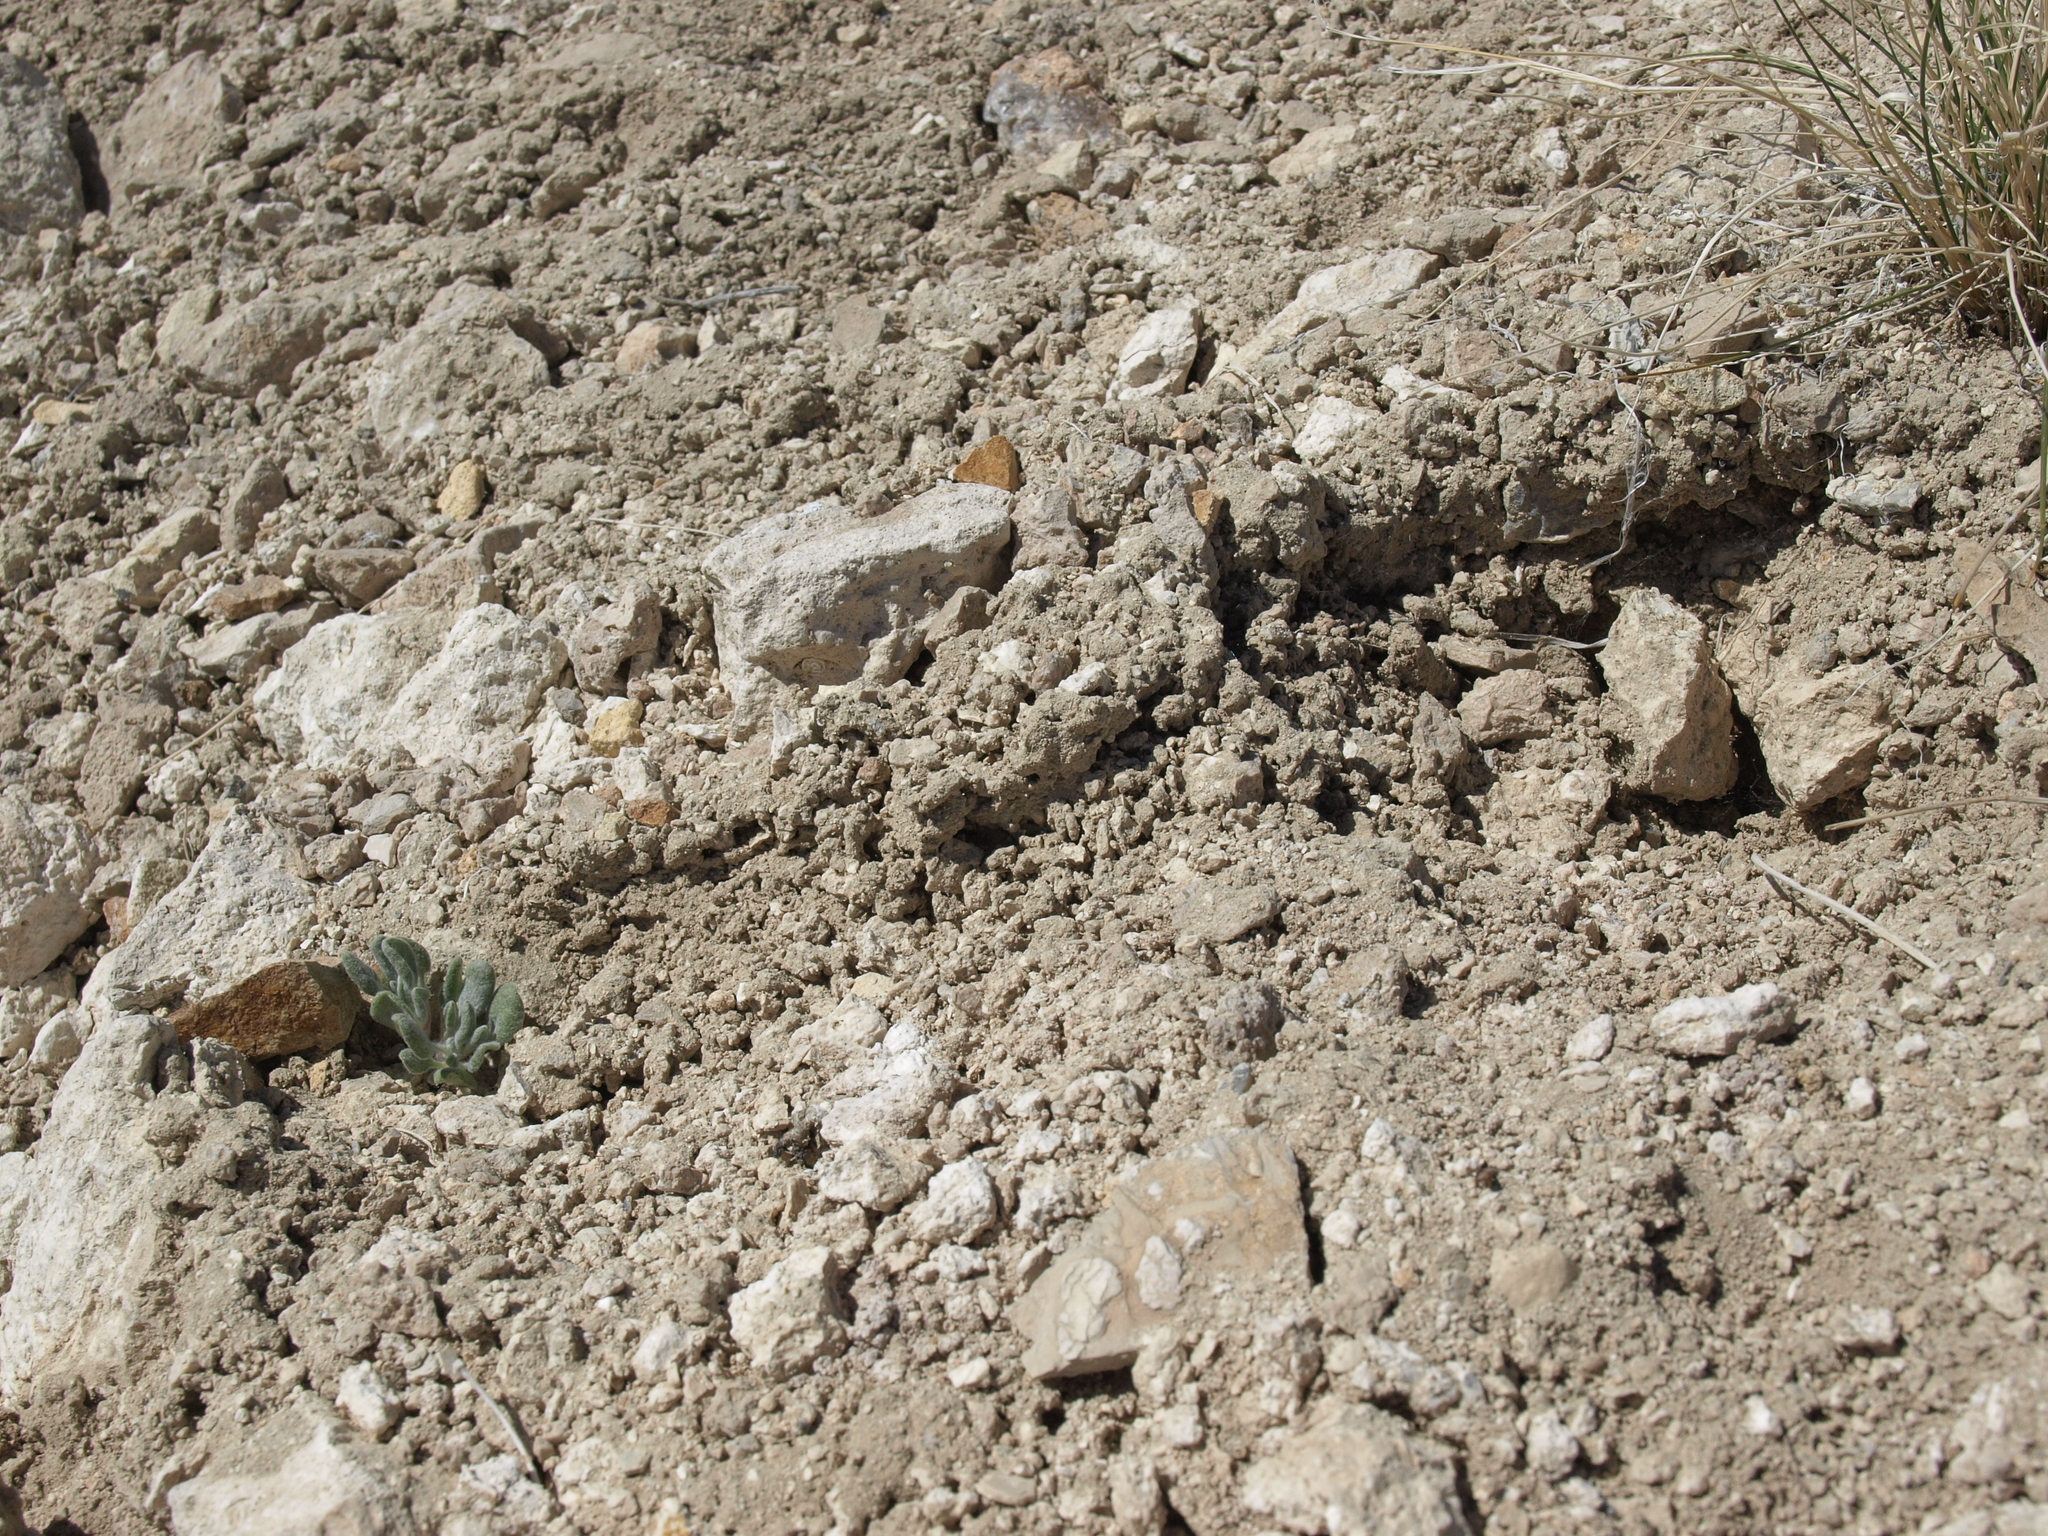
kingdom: Plantae
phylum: Tracheophyta
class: Magnoliopsida
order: Caryophyllales
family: Polygonaceae
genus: Eriogonum
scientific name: Eriogonum tiehmii
